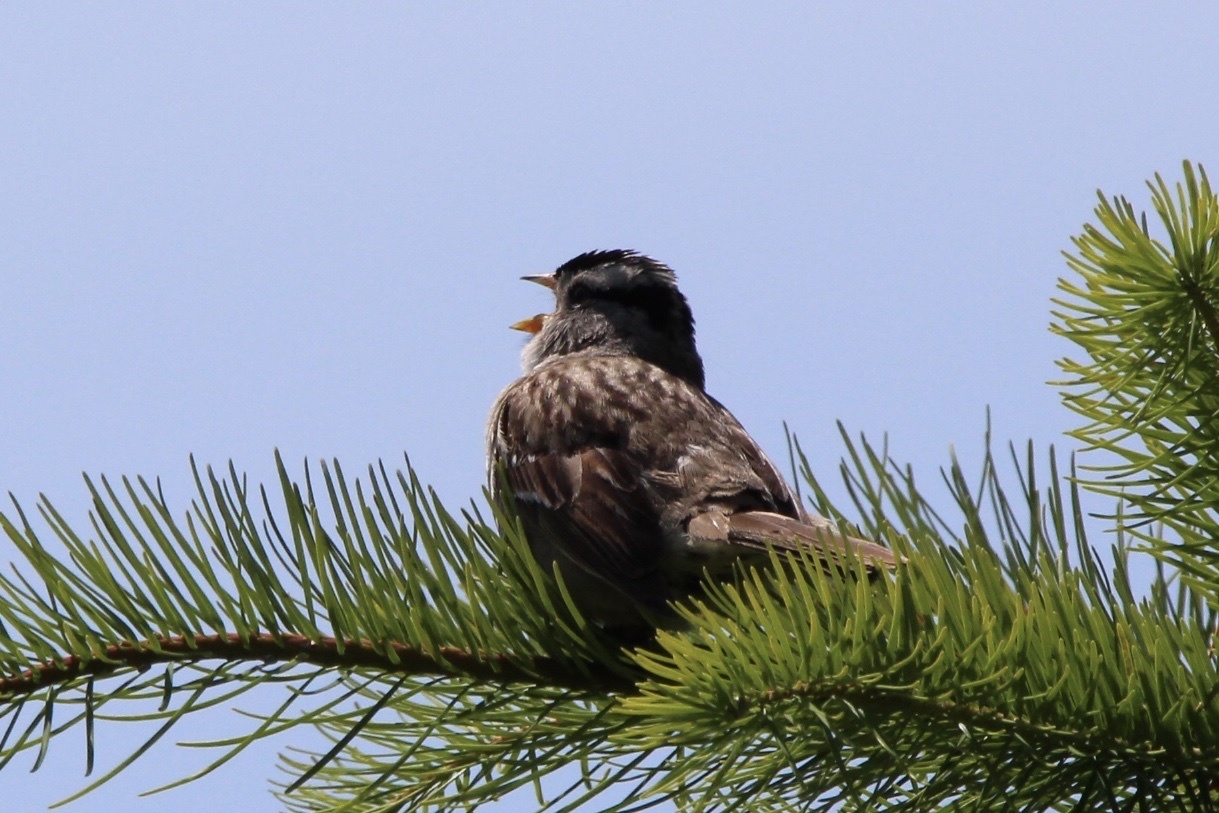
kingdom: Animalia
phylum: Chordata
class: Aves
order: Passeriformes
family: Passerellidae
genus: Zonotrichia
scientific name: Zonotrichia leucophrys
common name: White-crowned sparrow
